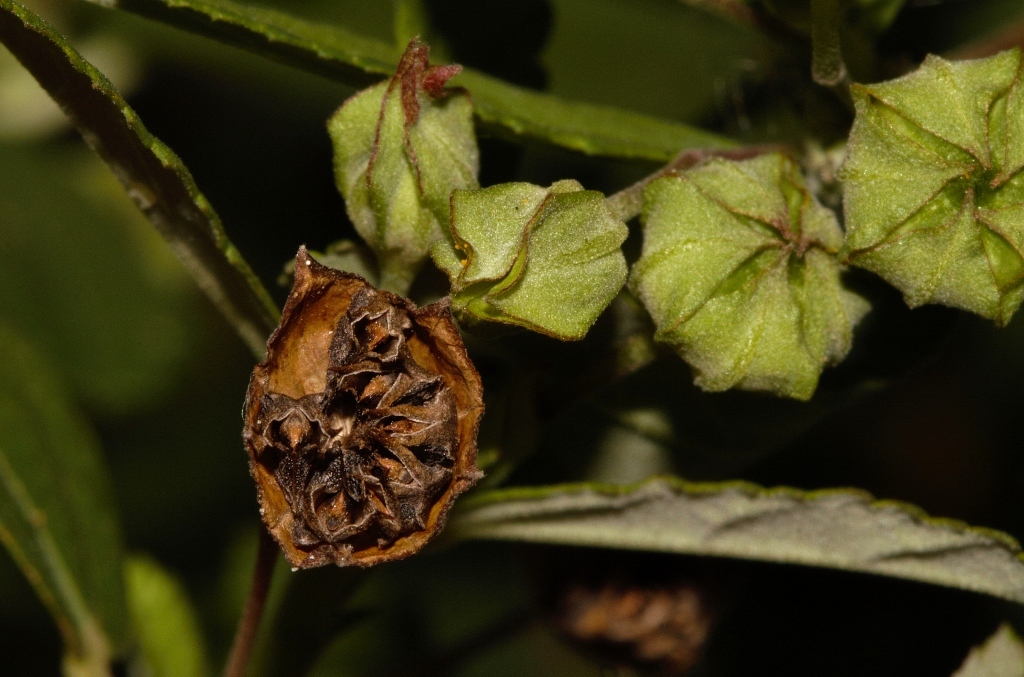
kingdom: Plantae
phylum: Tracheophyta
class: Magnoliopsida
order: Malvales
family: Malvaceae
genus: Sida
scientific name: Sida rhombifolia
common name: Queensland-hemp
